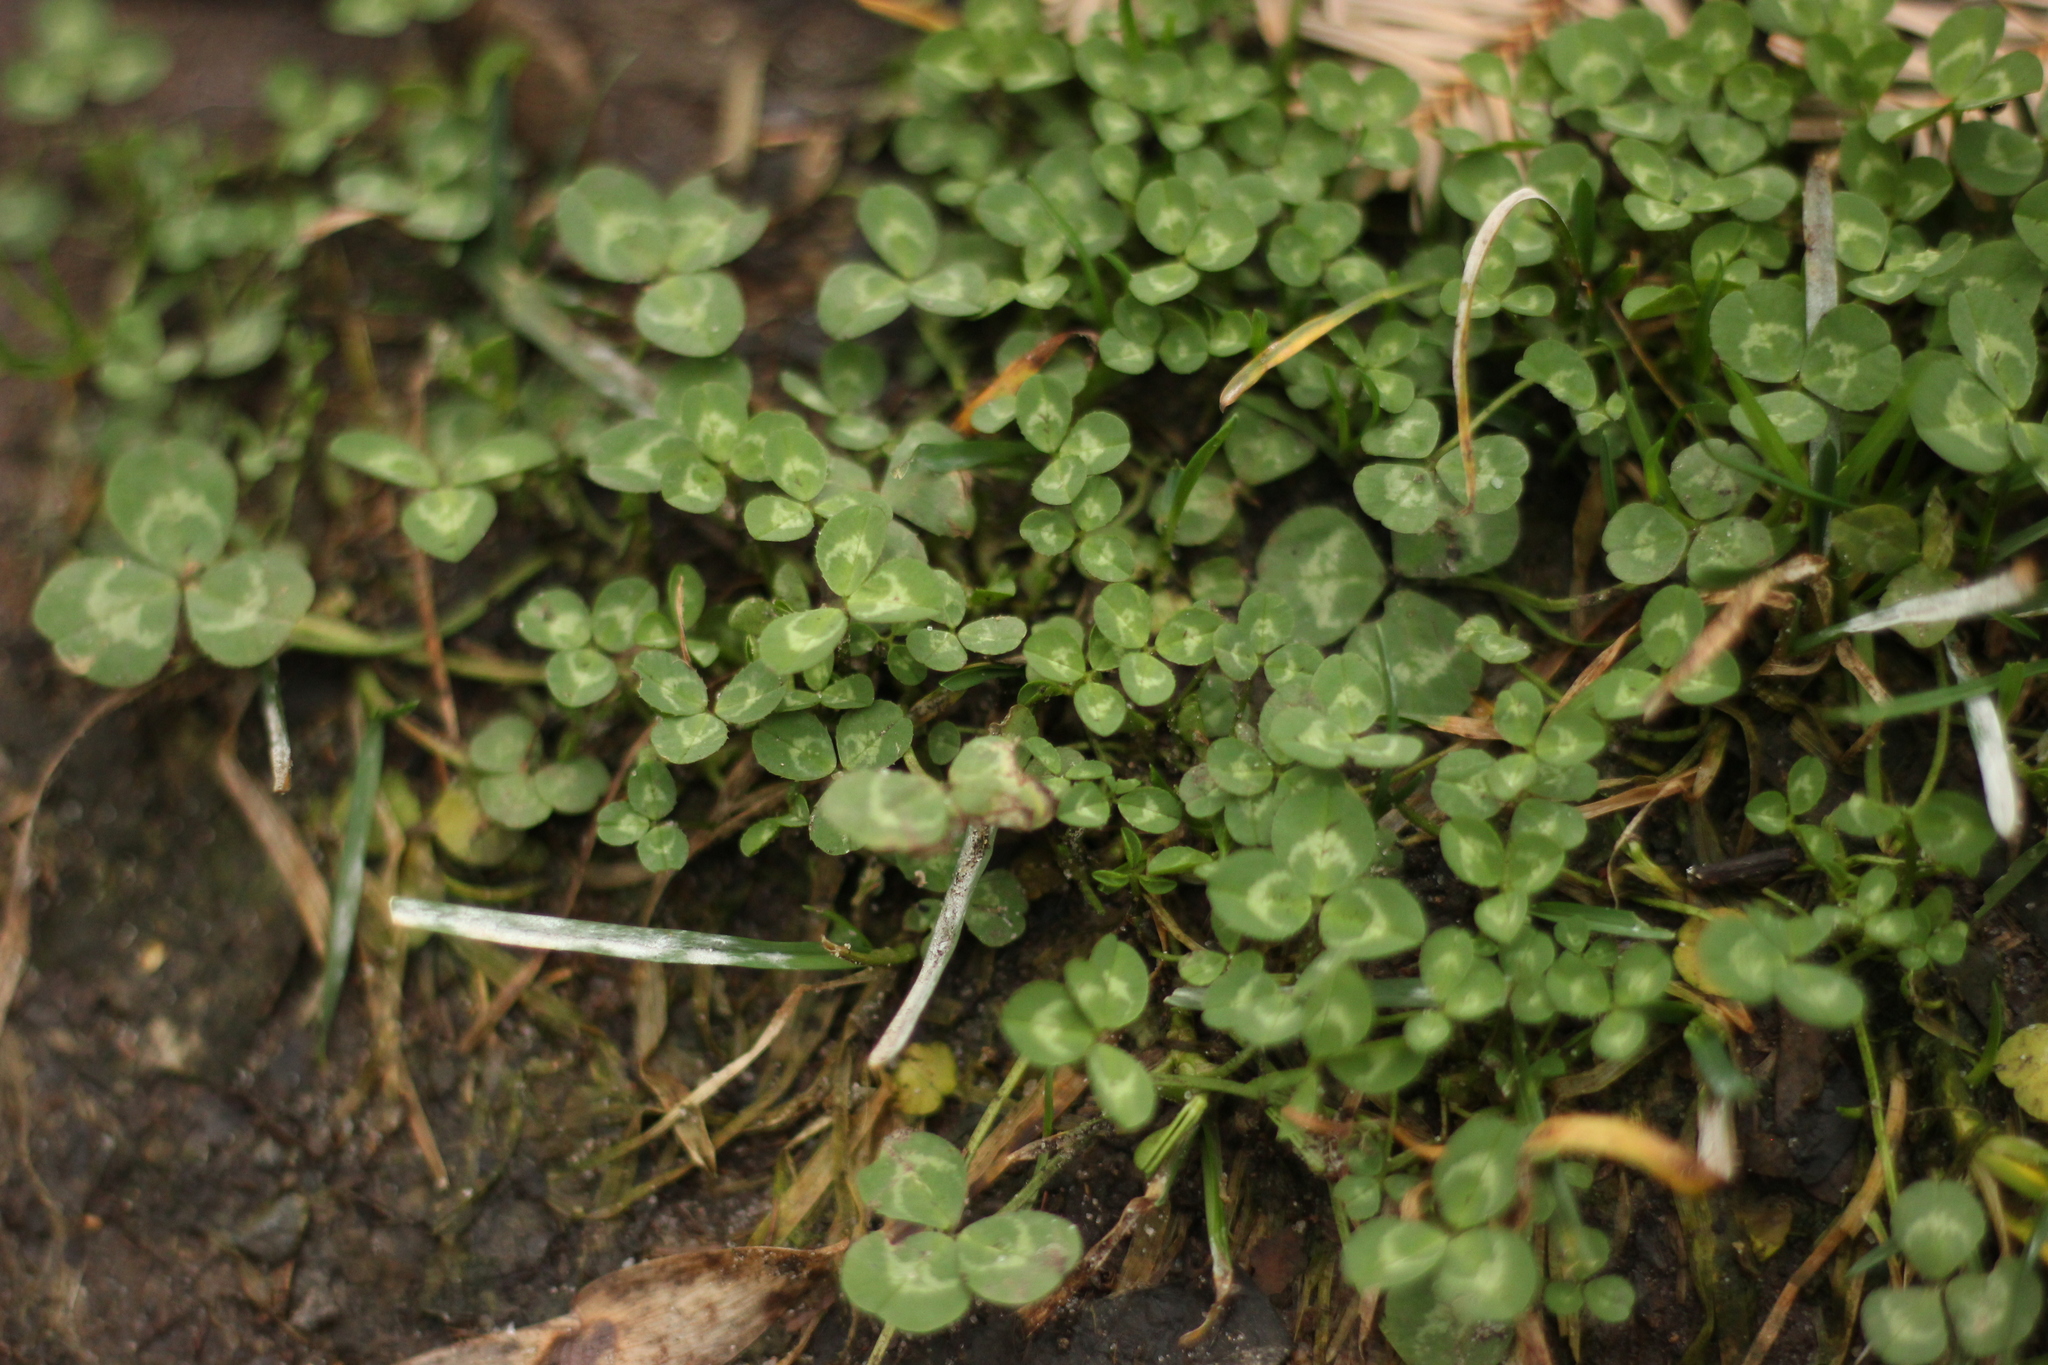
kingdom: Plantae
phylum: Tracheophyta
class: Magnoliopsida
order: Fabales
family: Fabaceae
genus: Trifolium
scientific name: Trifolium repens
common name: White clover
